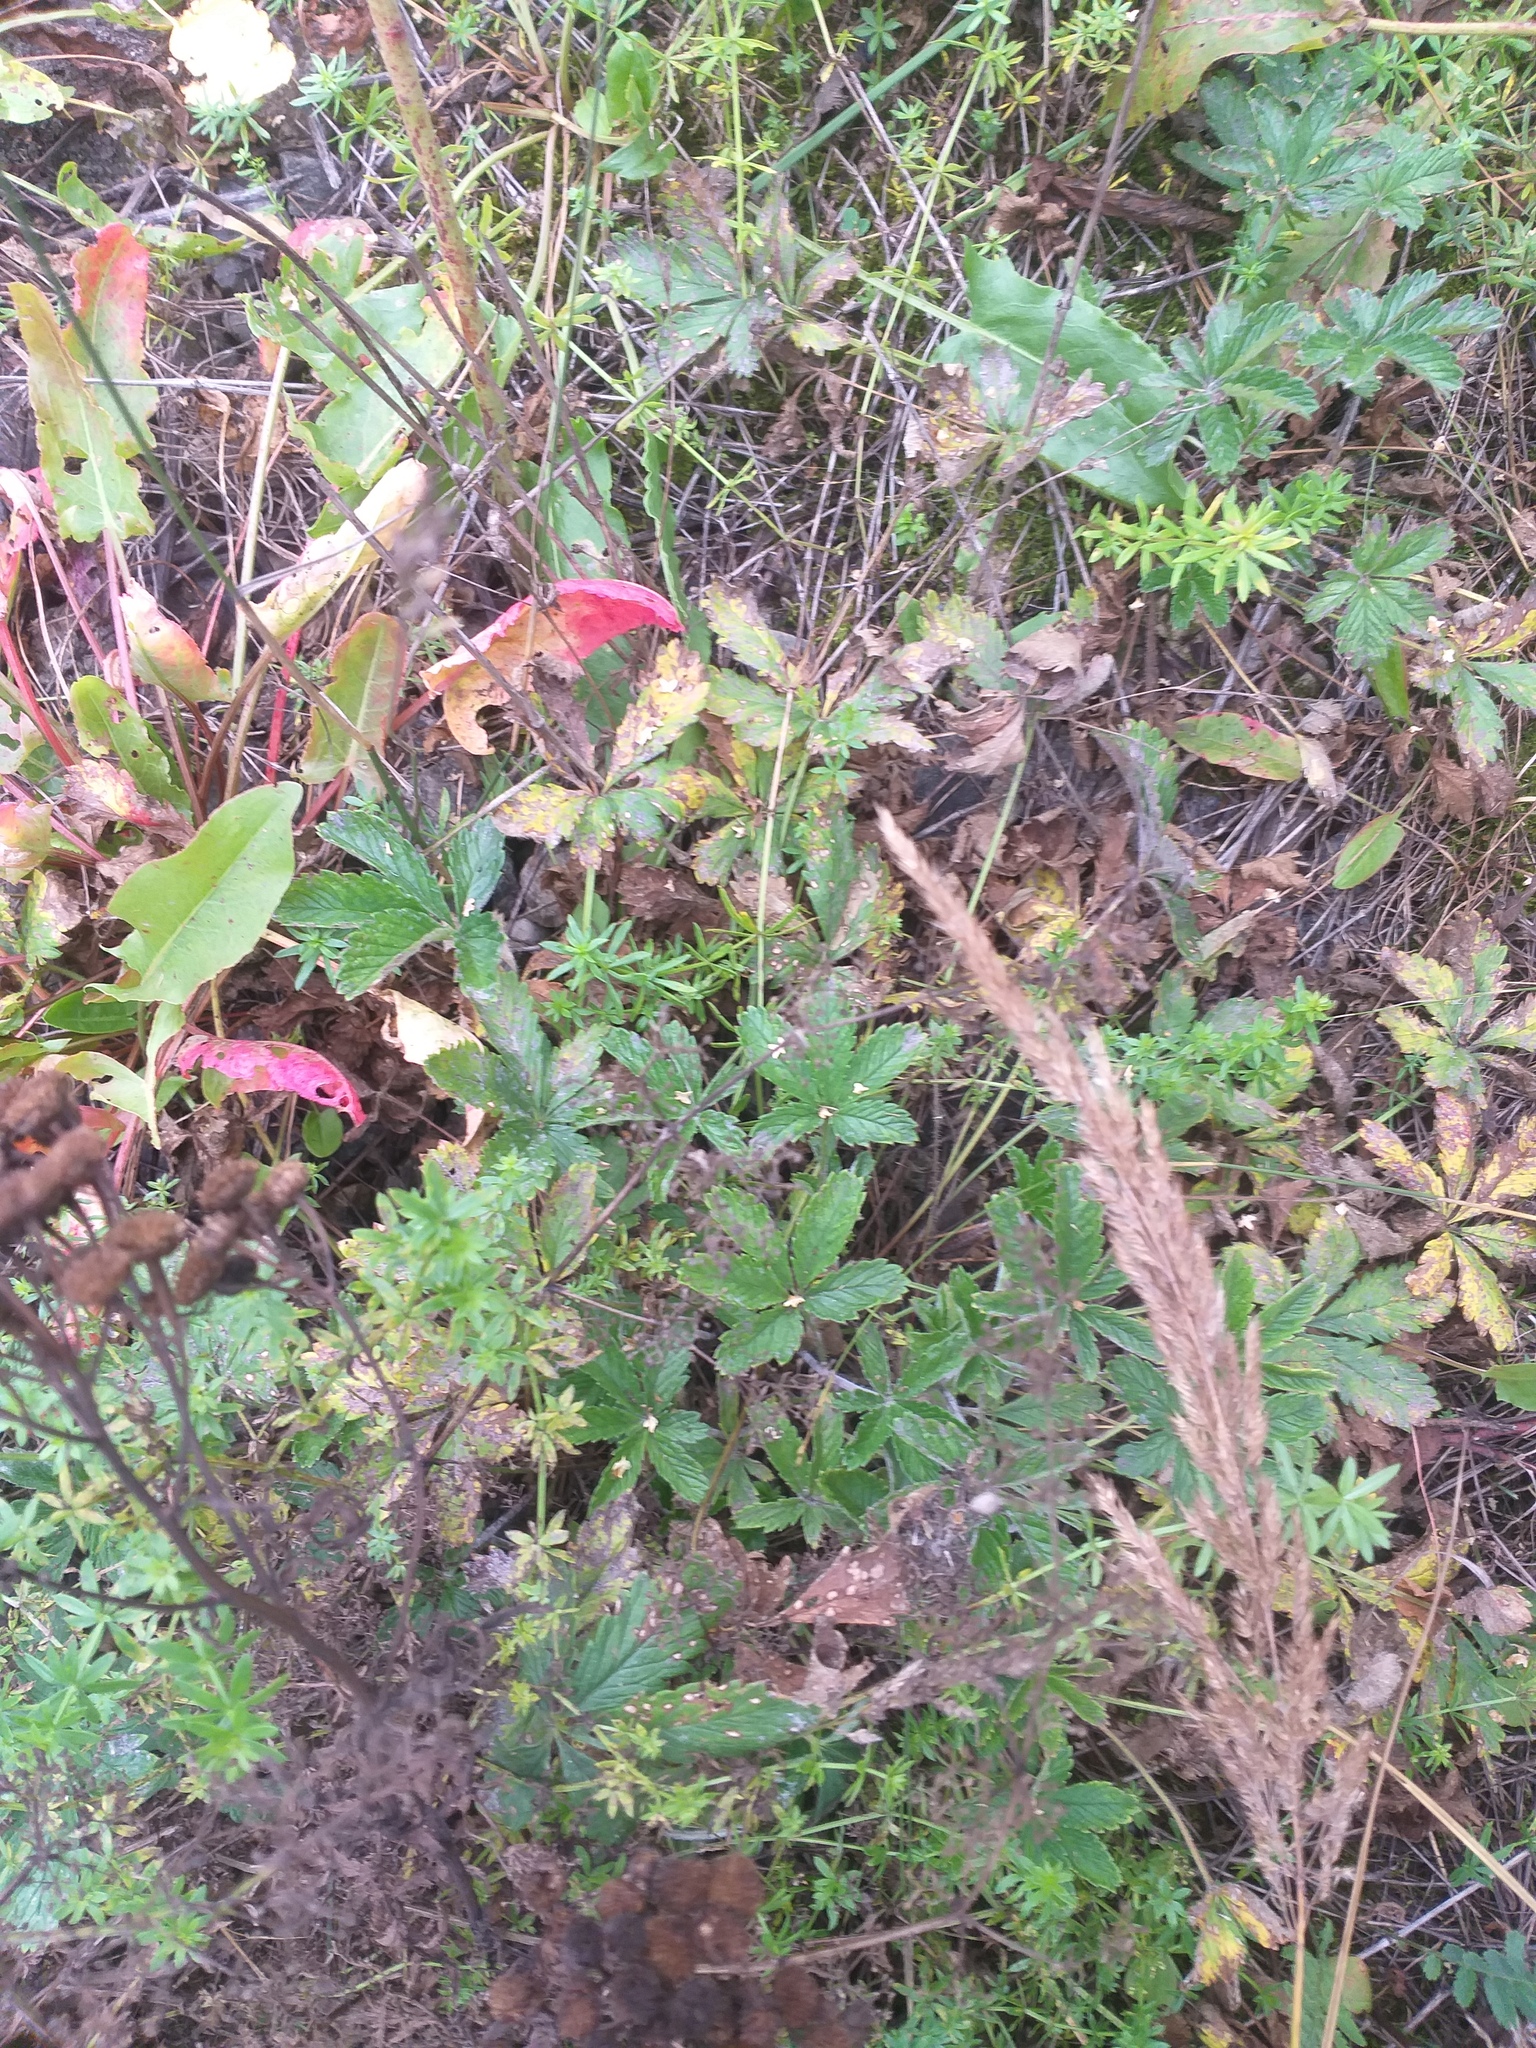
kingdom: Plantae
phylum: Tracheophyta
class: Magnoliopsida
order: Rosales
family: Rosaceae
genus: Potentilla
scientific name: Potentilla thuringiaca
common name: European cinquefoil
